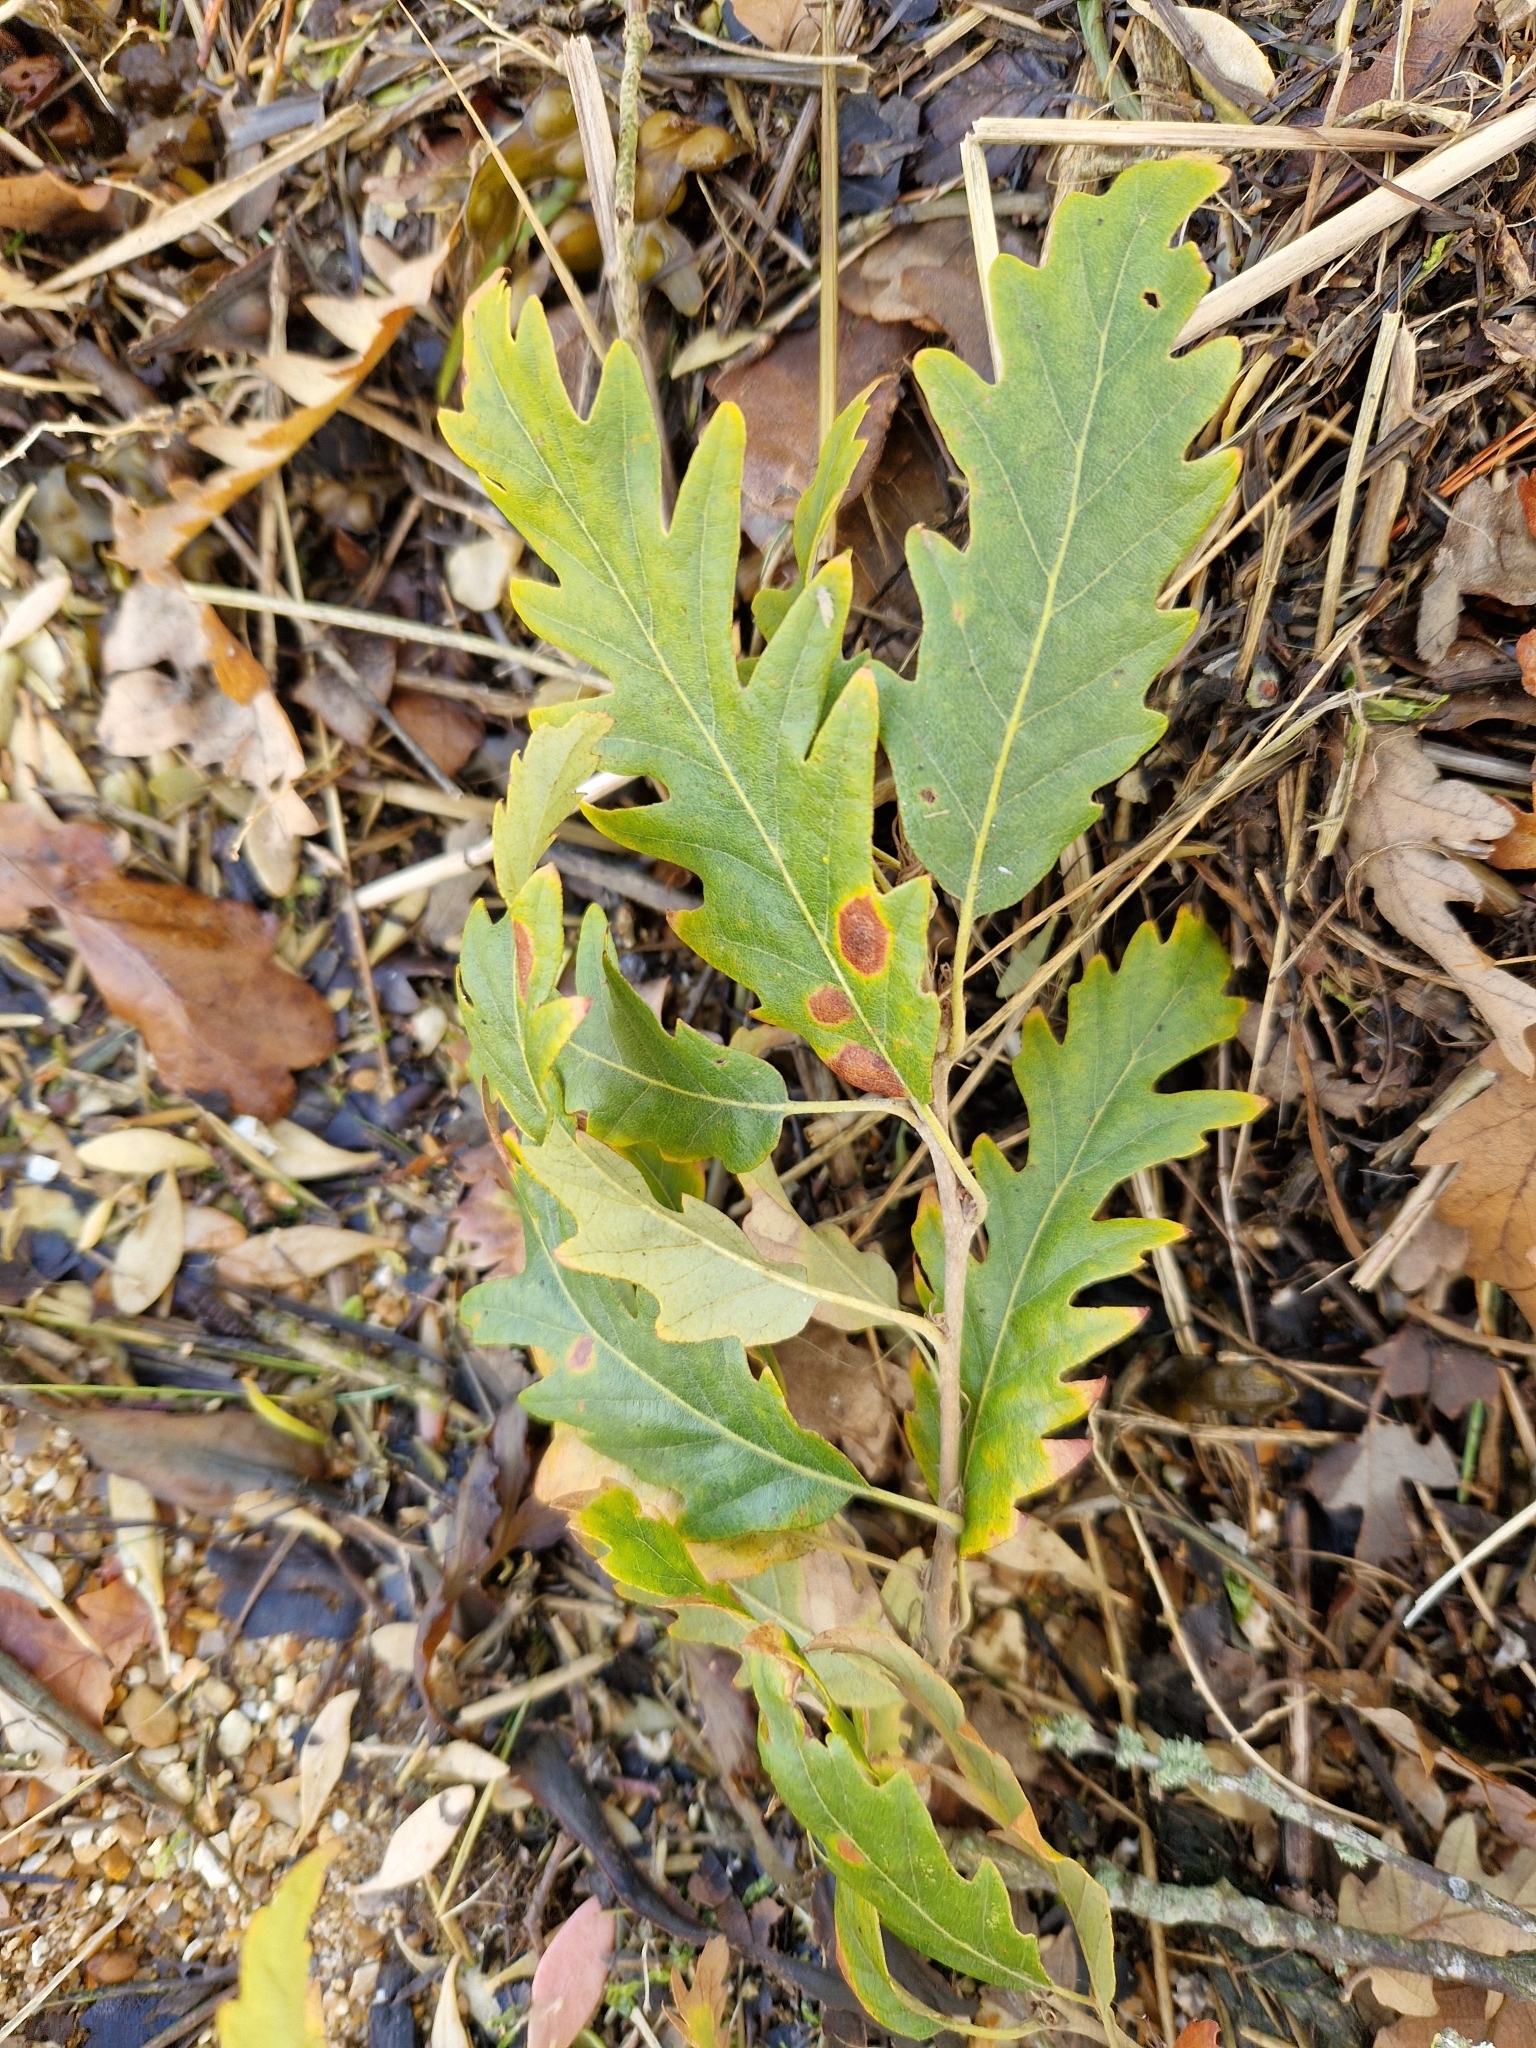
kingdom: Plantae
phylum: Tracheophyta
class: Magnoliopsida
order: Fagales
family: Fagaceae
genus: Quercus
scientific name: Quercus cerris
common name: Turkey oak
